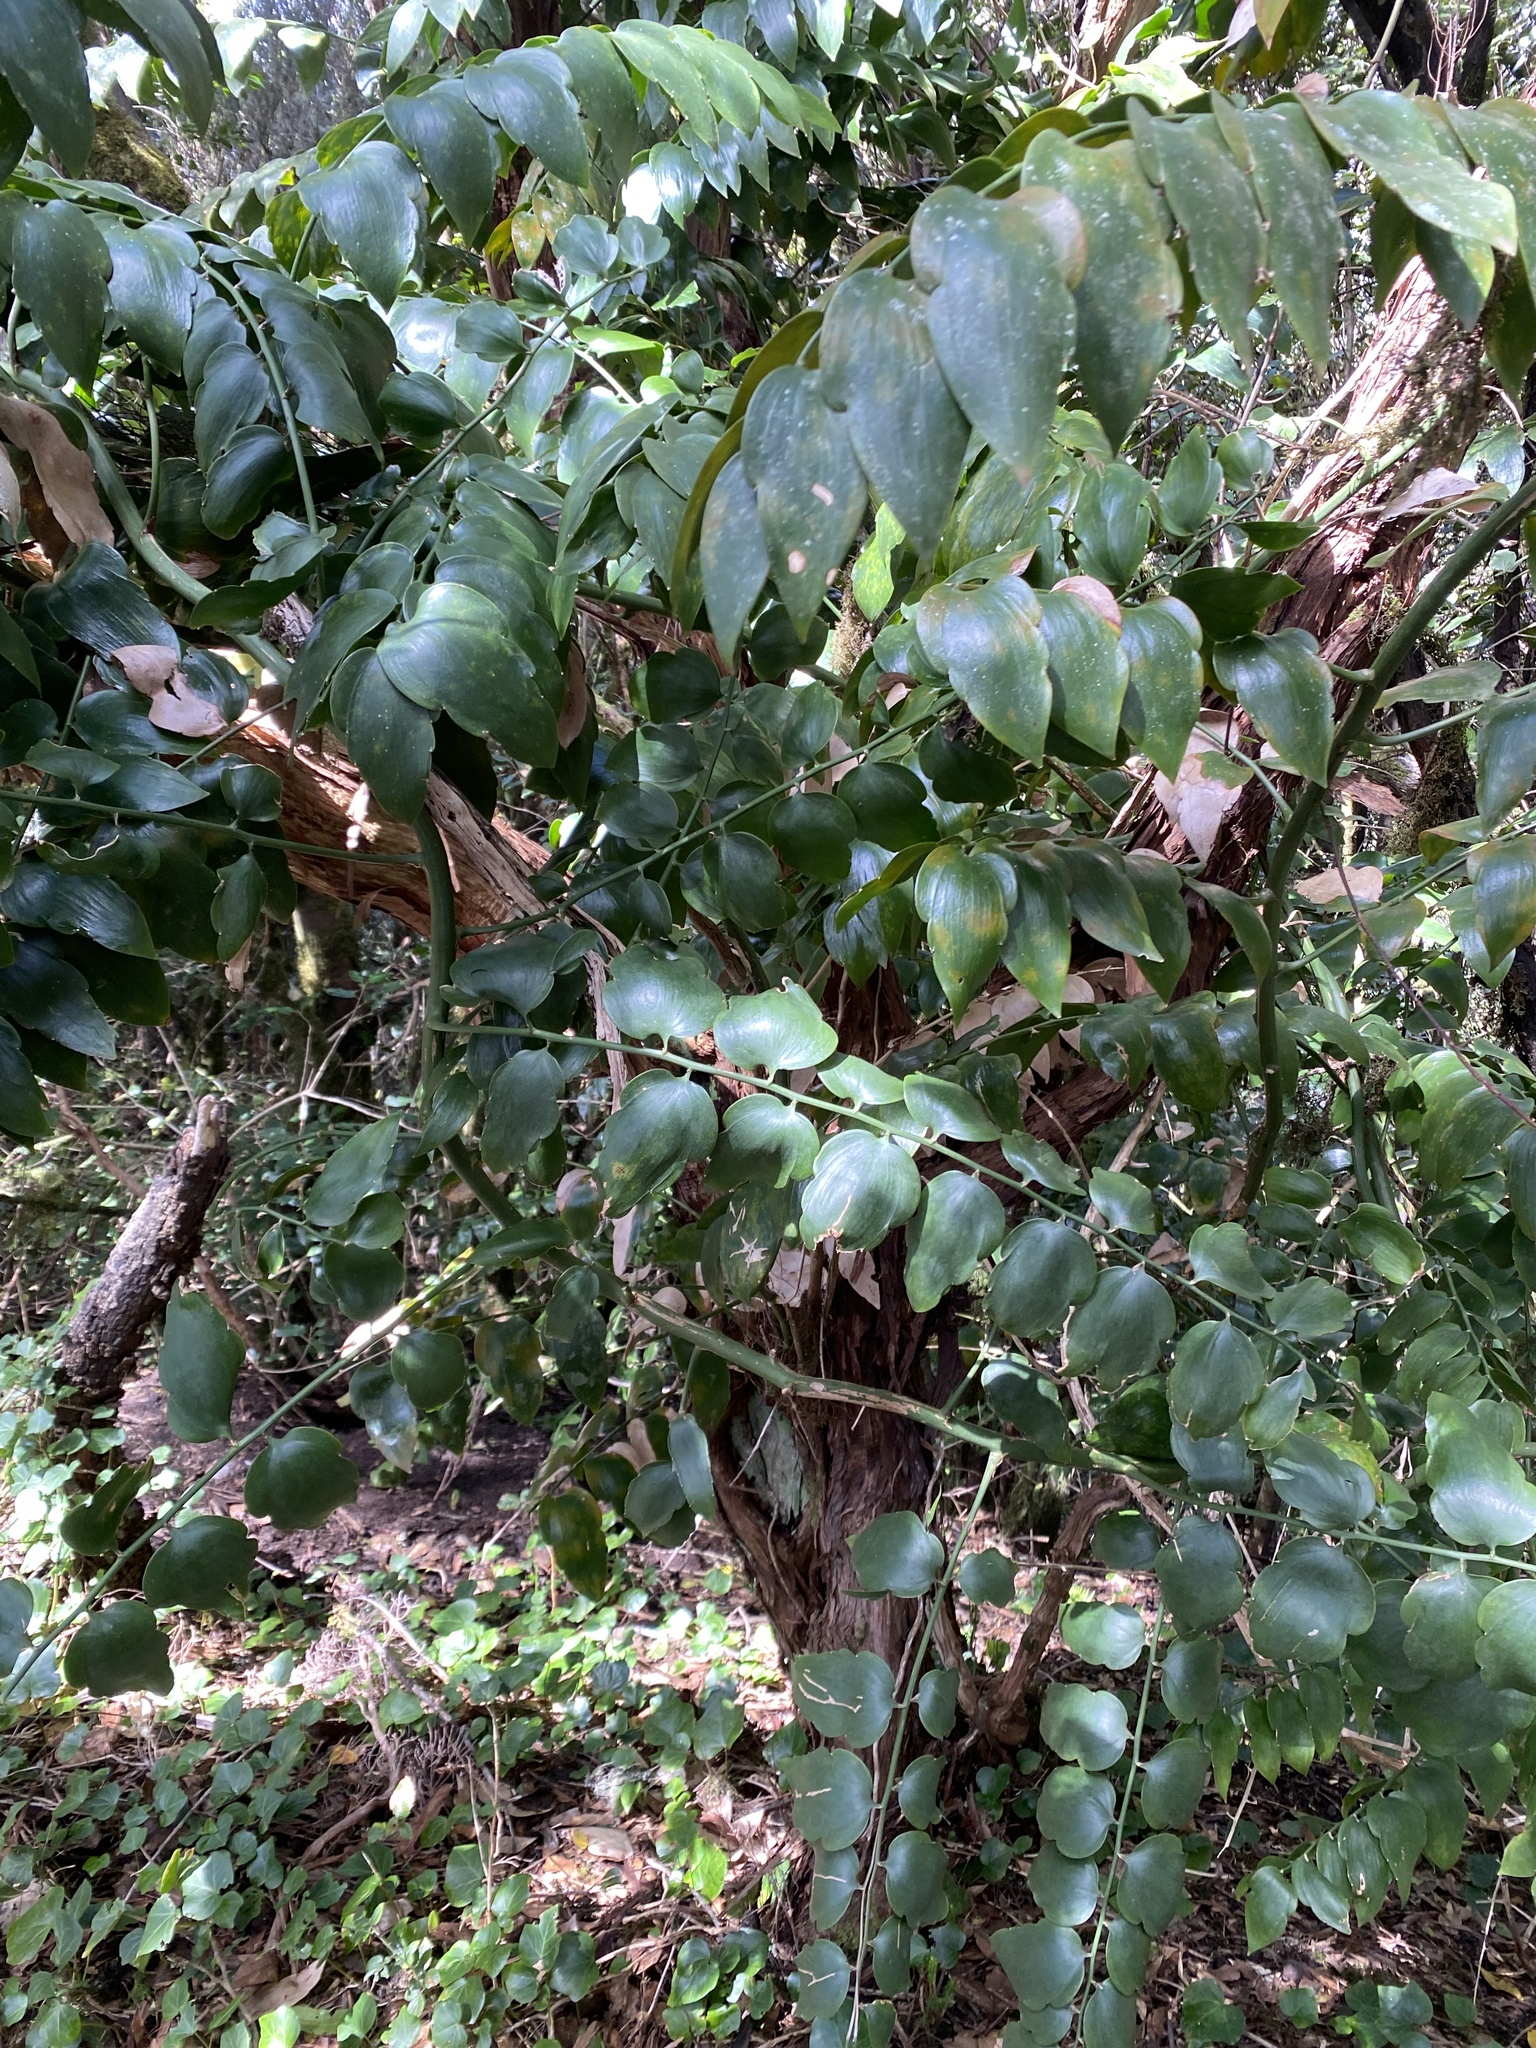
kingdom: Plantae
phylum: Tracheophyta
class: Liliopsida
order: Asparagales
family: Asparagaceae
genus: Semele
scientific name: Semele androgyna
